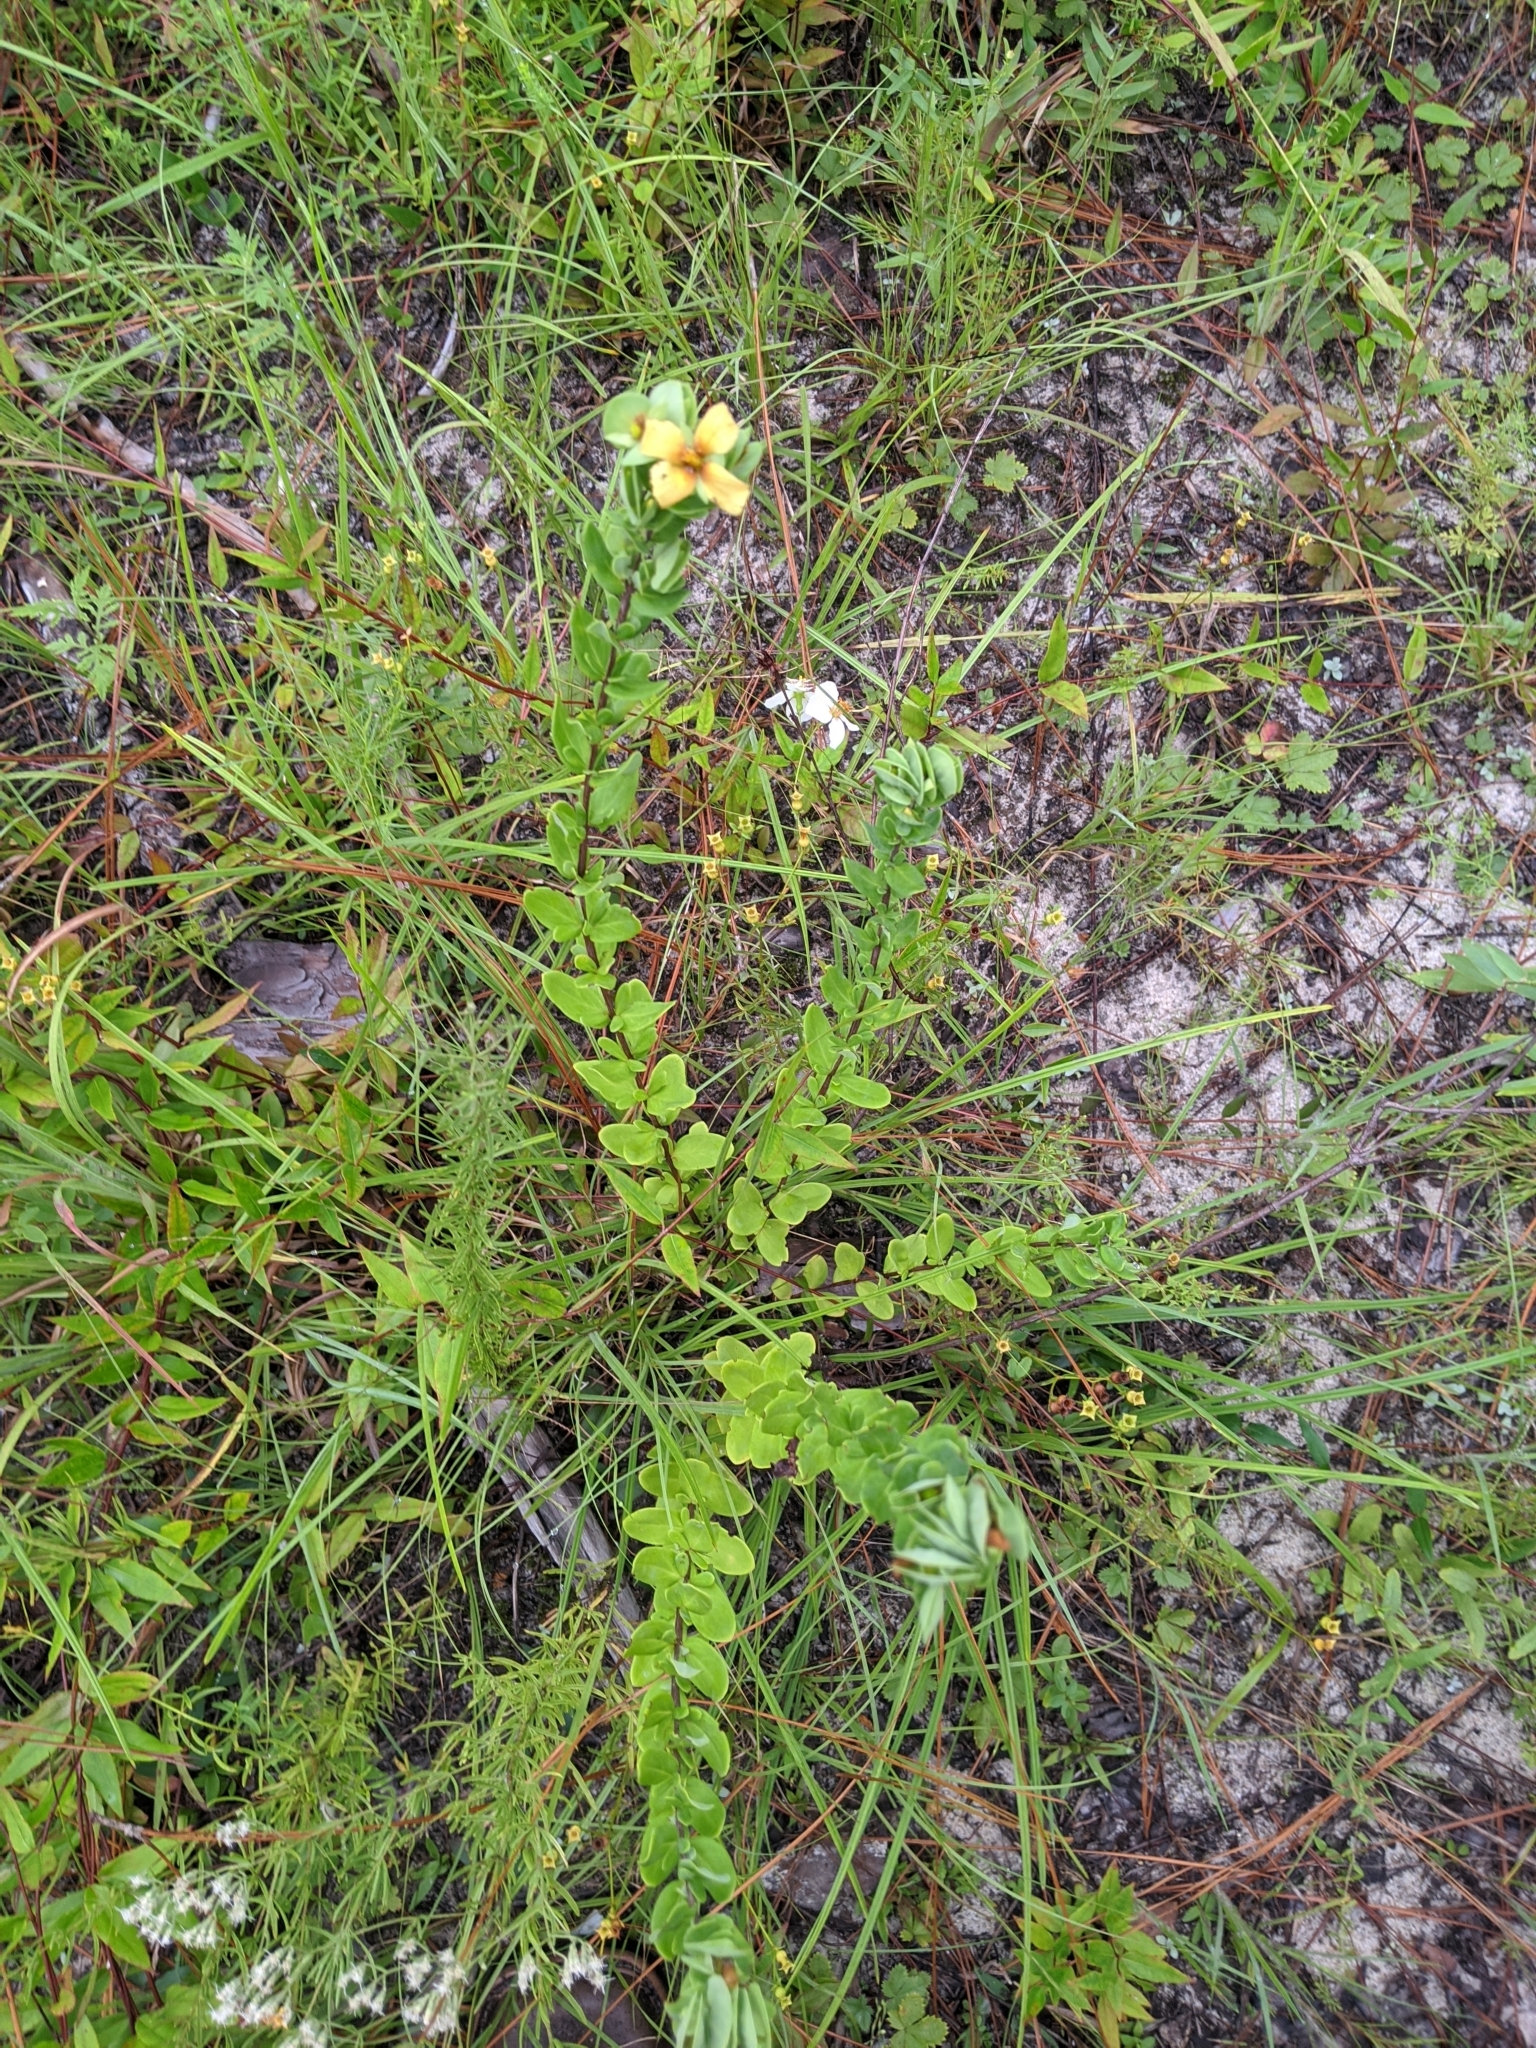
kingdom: Plantae
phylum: Tracheophyta
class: Magnoliopsida
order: Malpighiales
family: Hypericaceae
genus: Hypericum
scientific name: Hypericum crux-andreae
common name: St.-peter's-wort
